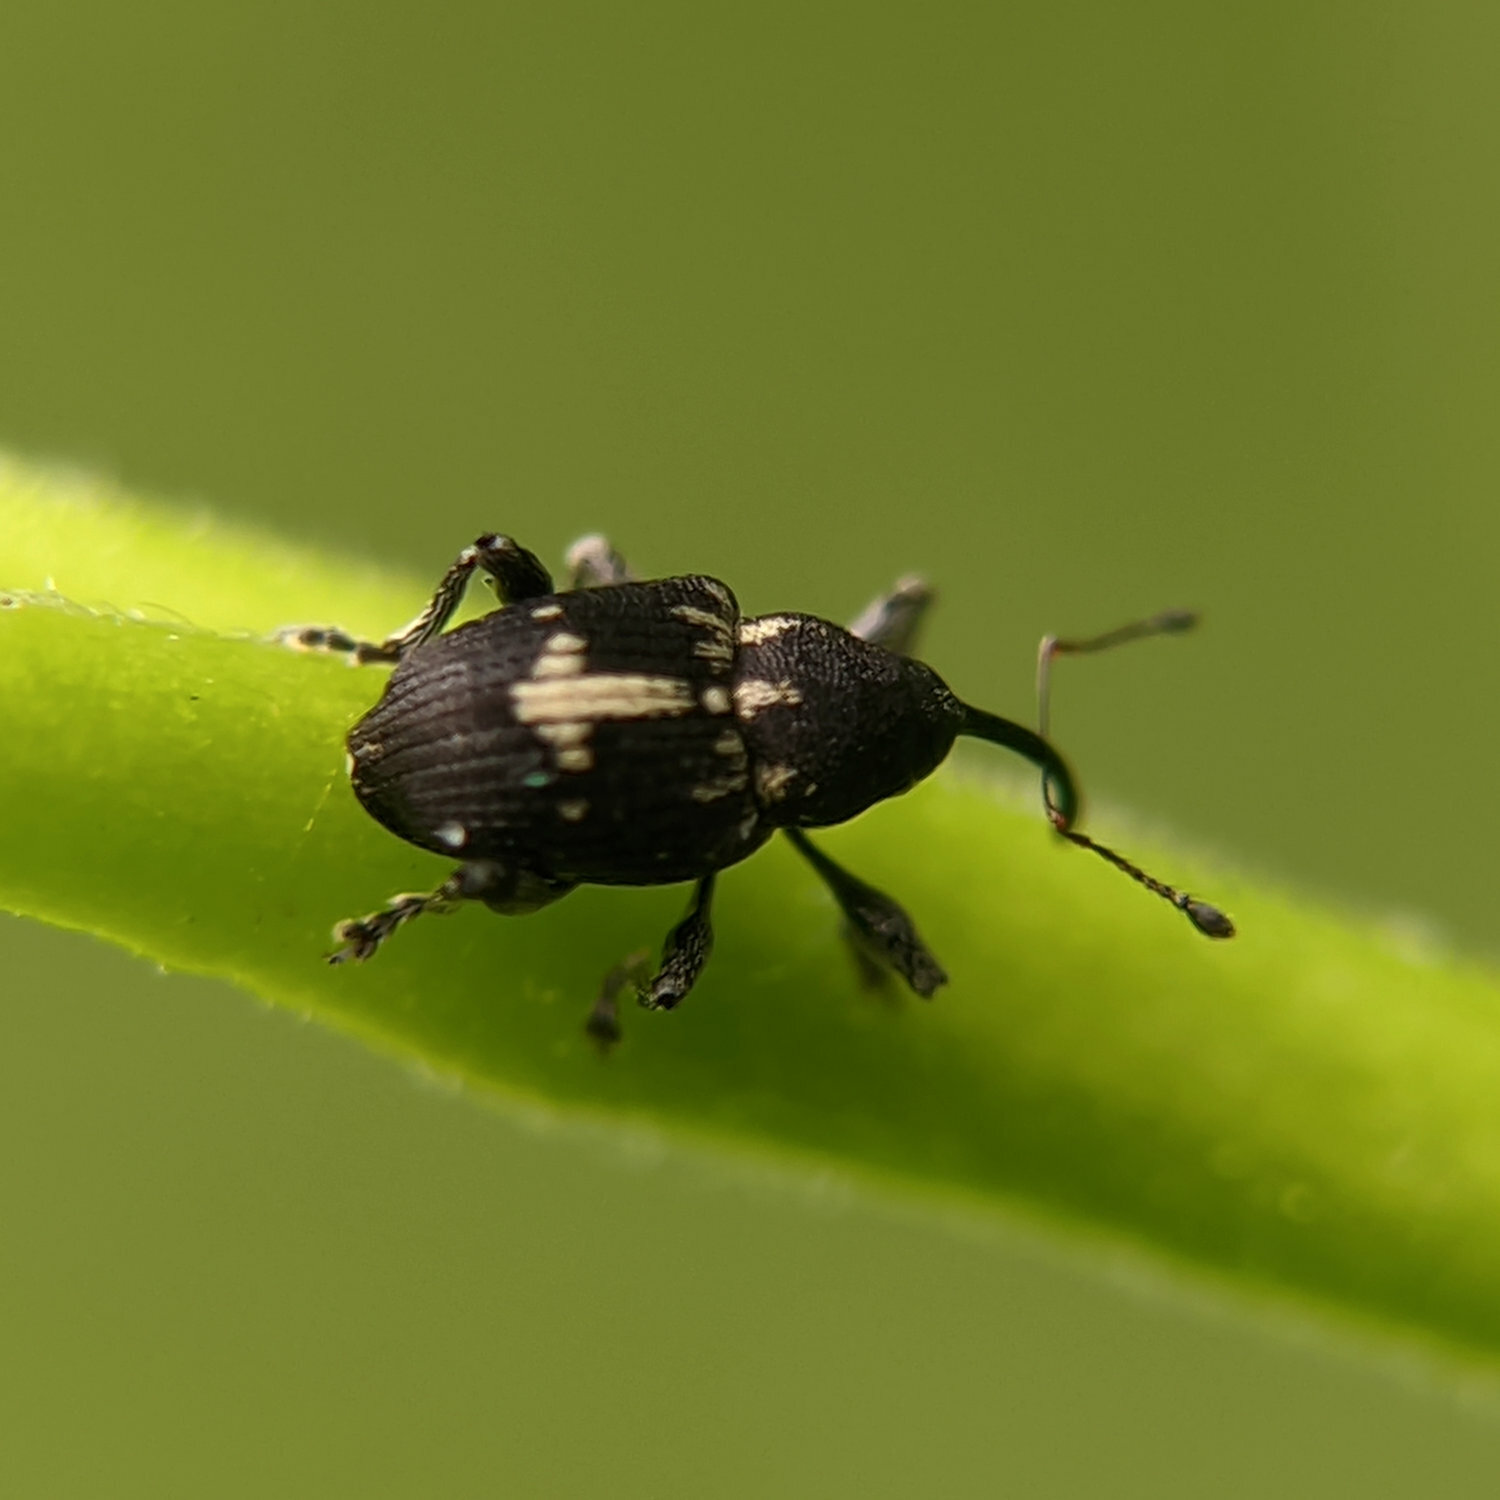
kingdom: Animalia
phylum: Arthropoda
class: Insecta
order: Coleoptera
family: Curculionidae
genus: Archarius
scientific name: Archarius crux
